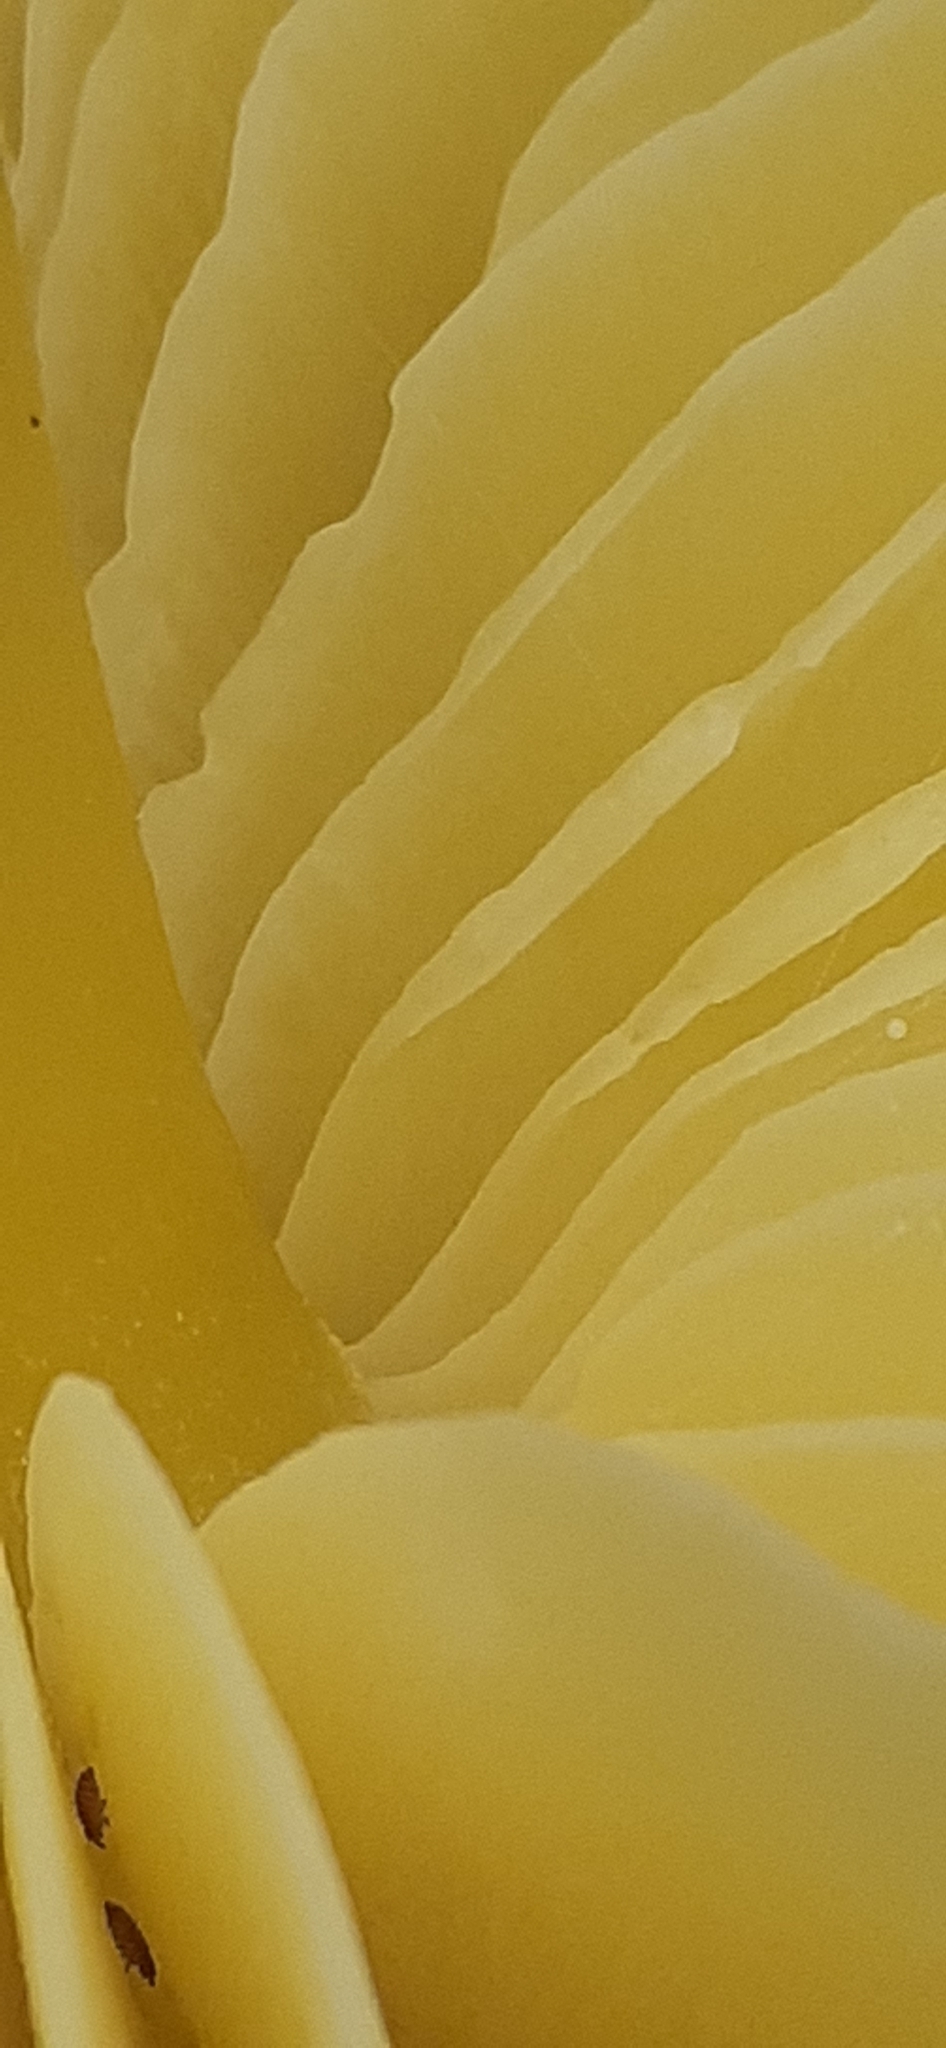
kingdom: Fungi
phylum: Basidiomycota
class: Agaricomycetes
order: Agaricales
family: Hygrophoraceae
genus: Hygrocybe
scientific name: Hygrocybe chlorophana
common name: Golden waxcap
